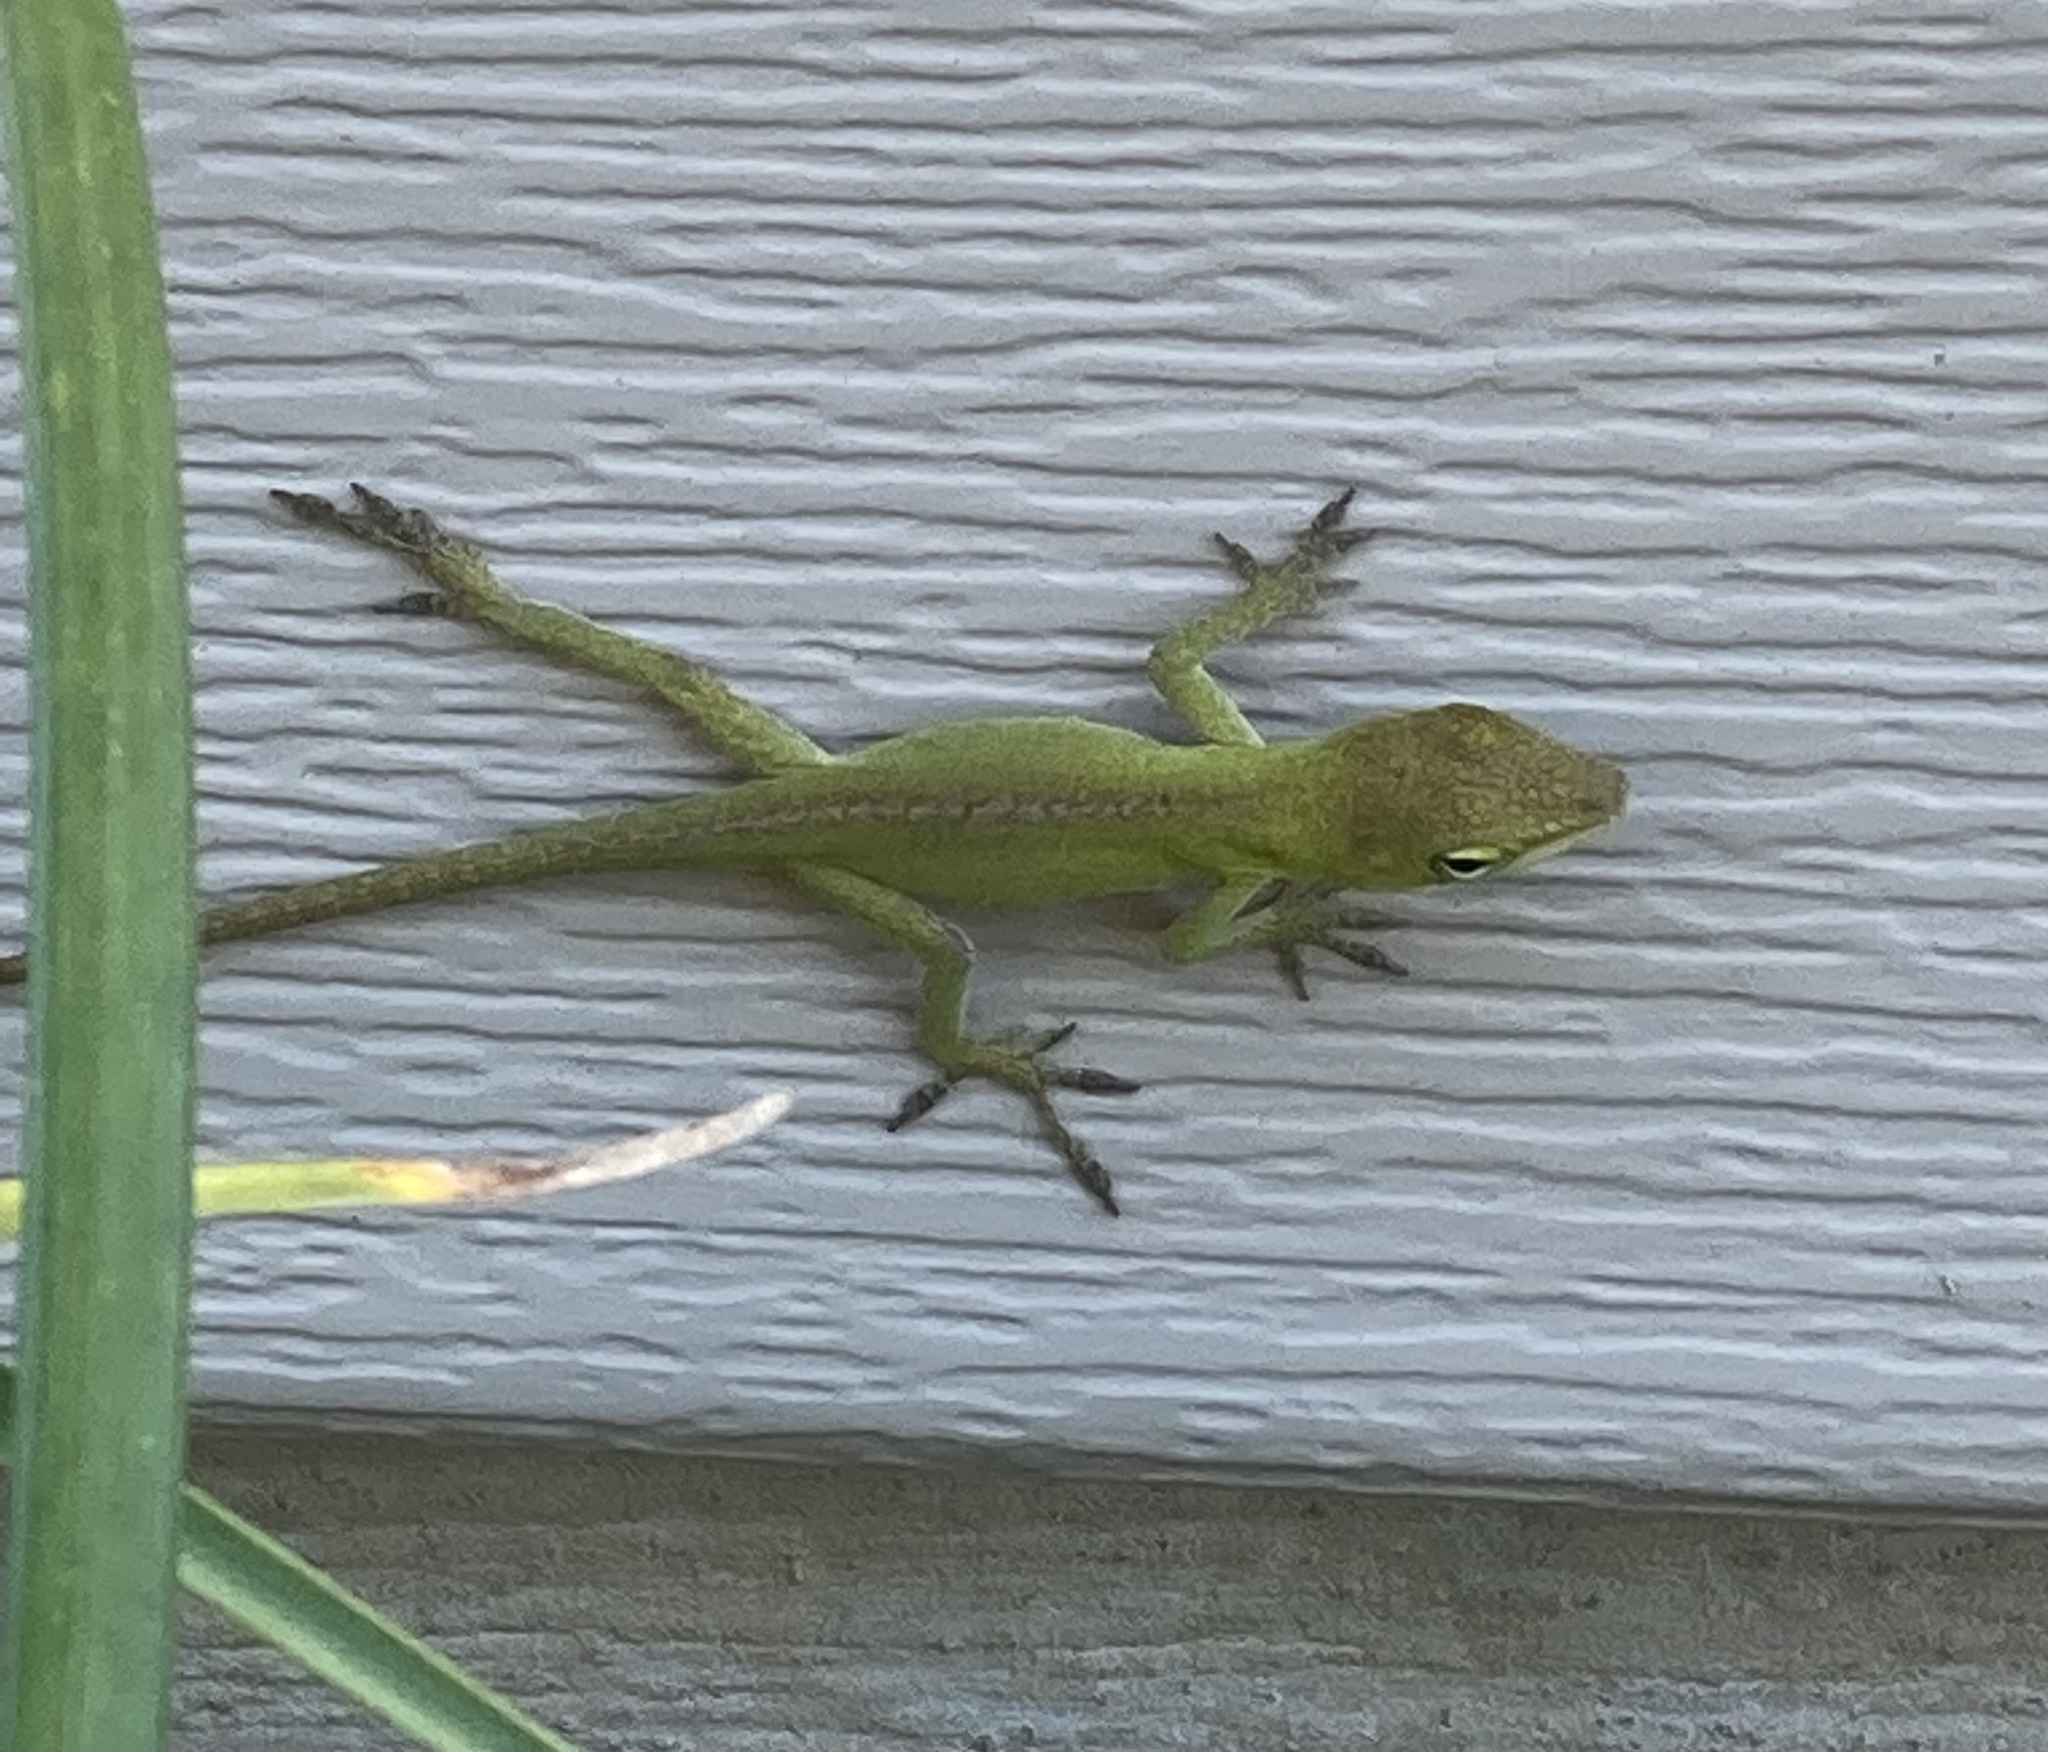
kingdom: Animalia
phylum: Chordata
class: Squamata
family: Dactyloidae
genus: Anolis
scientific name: Anolis carolinensis
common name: Green anole
